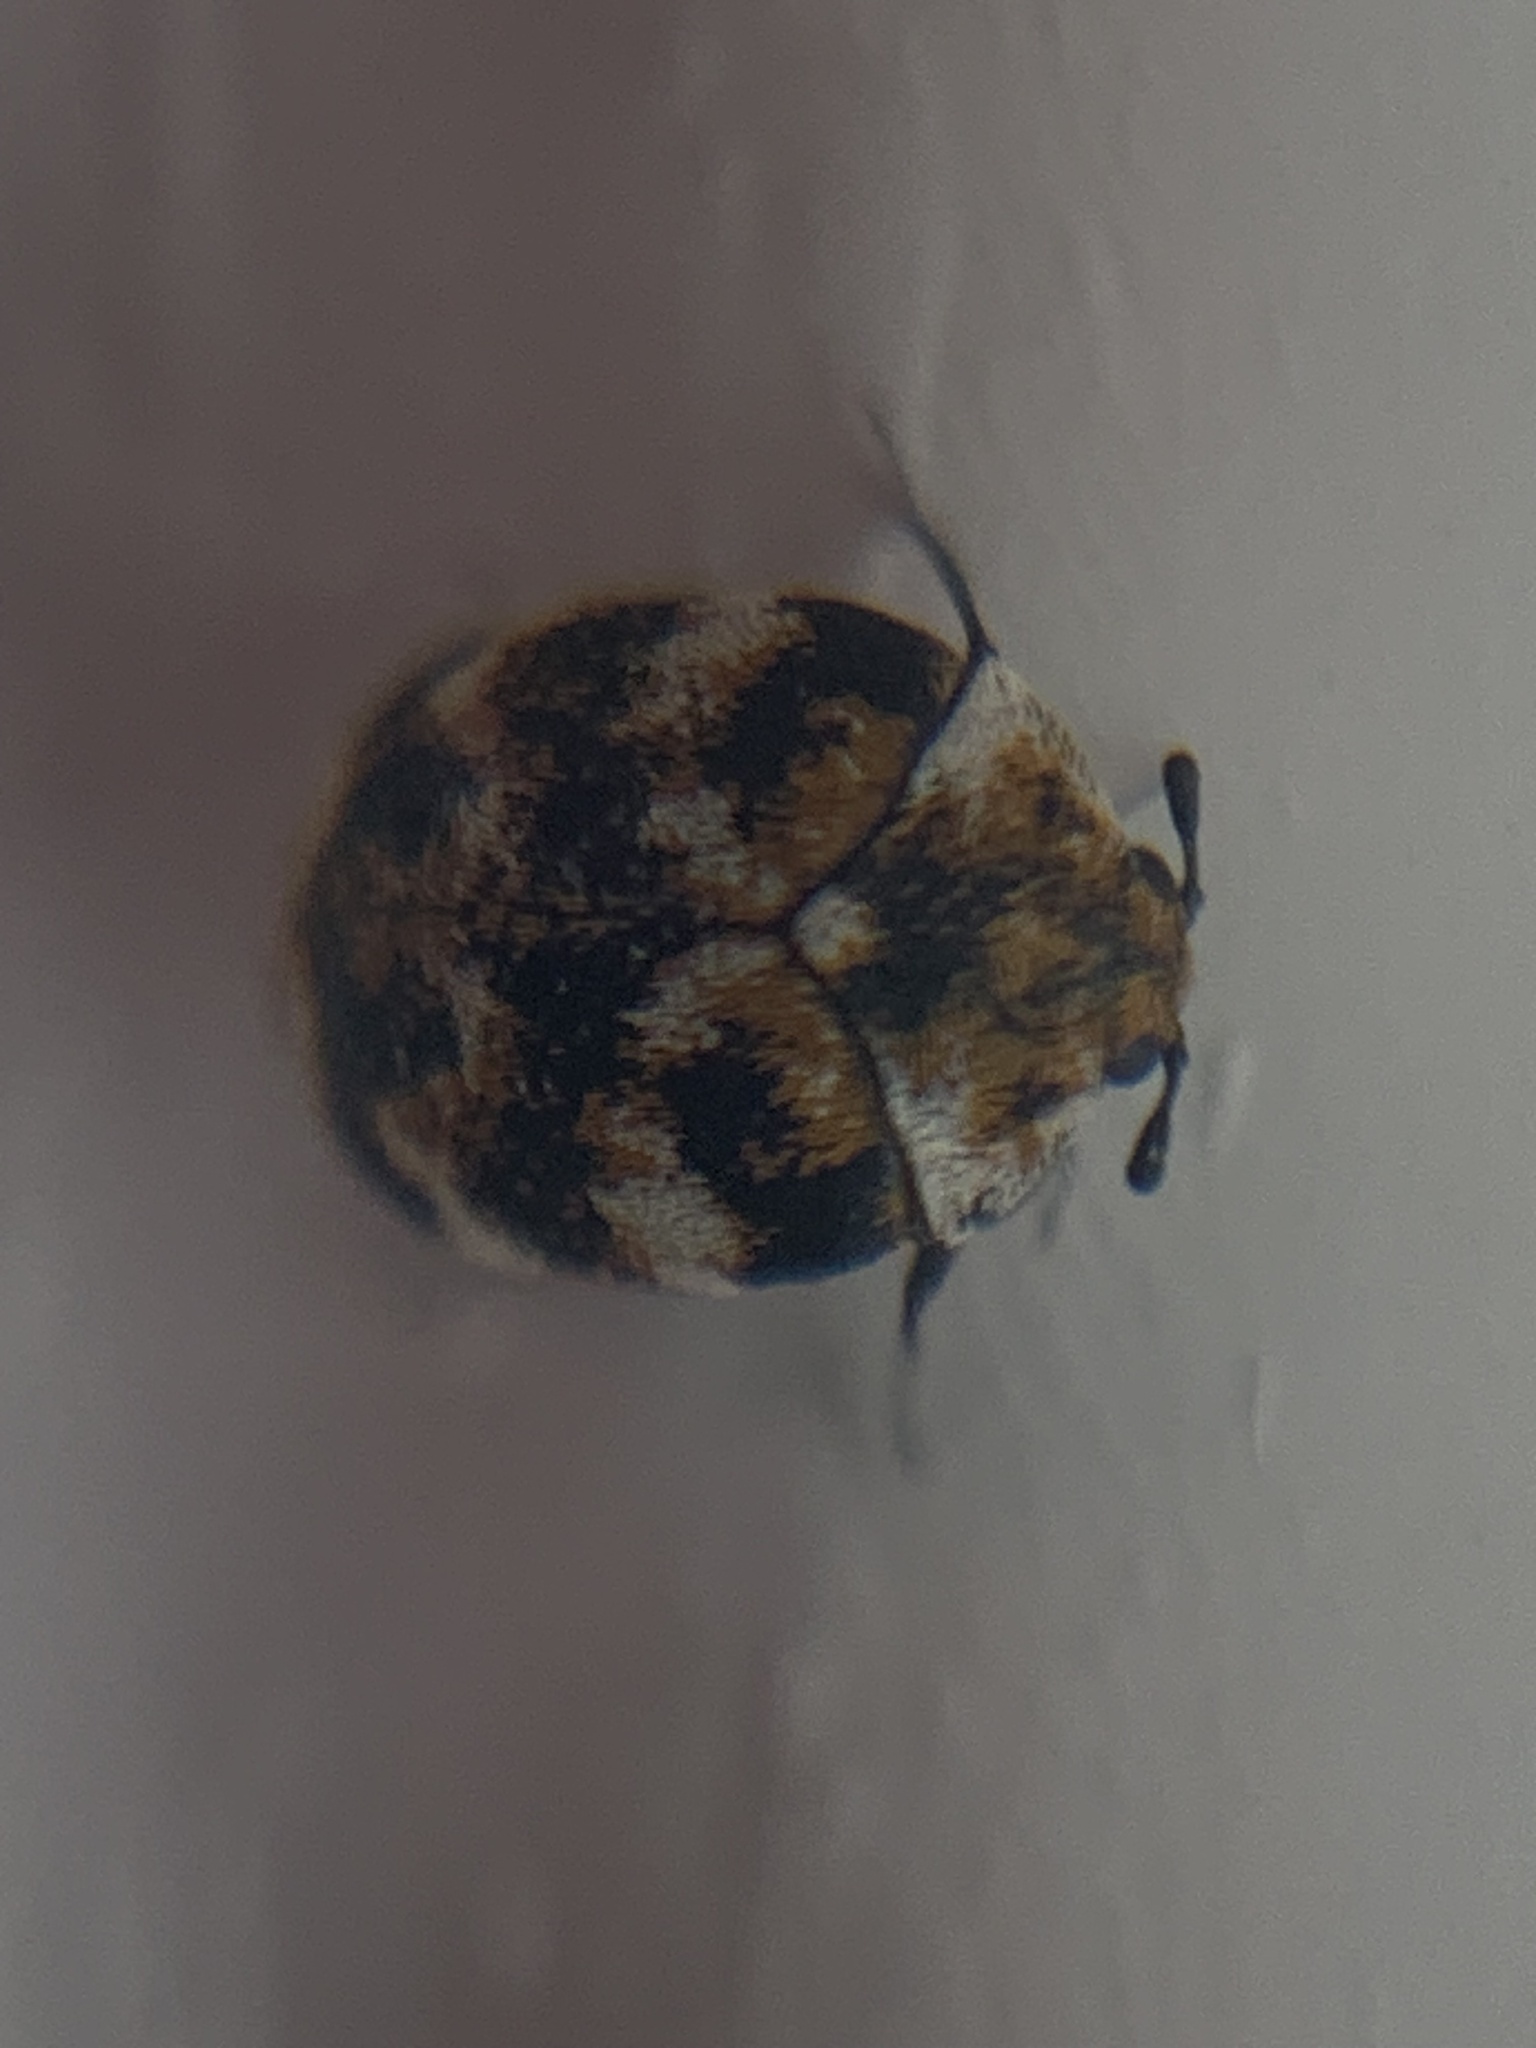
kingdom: Animalia
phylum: Arthropoda
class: Insecta
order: Coleoptera
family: Dermestidae
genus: Anthrenus
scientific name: Anthrenus verbasci
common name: Varied carpet beetle
